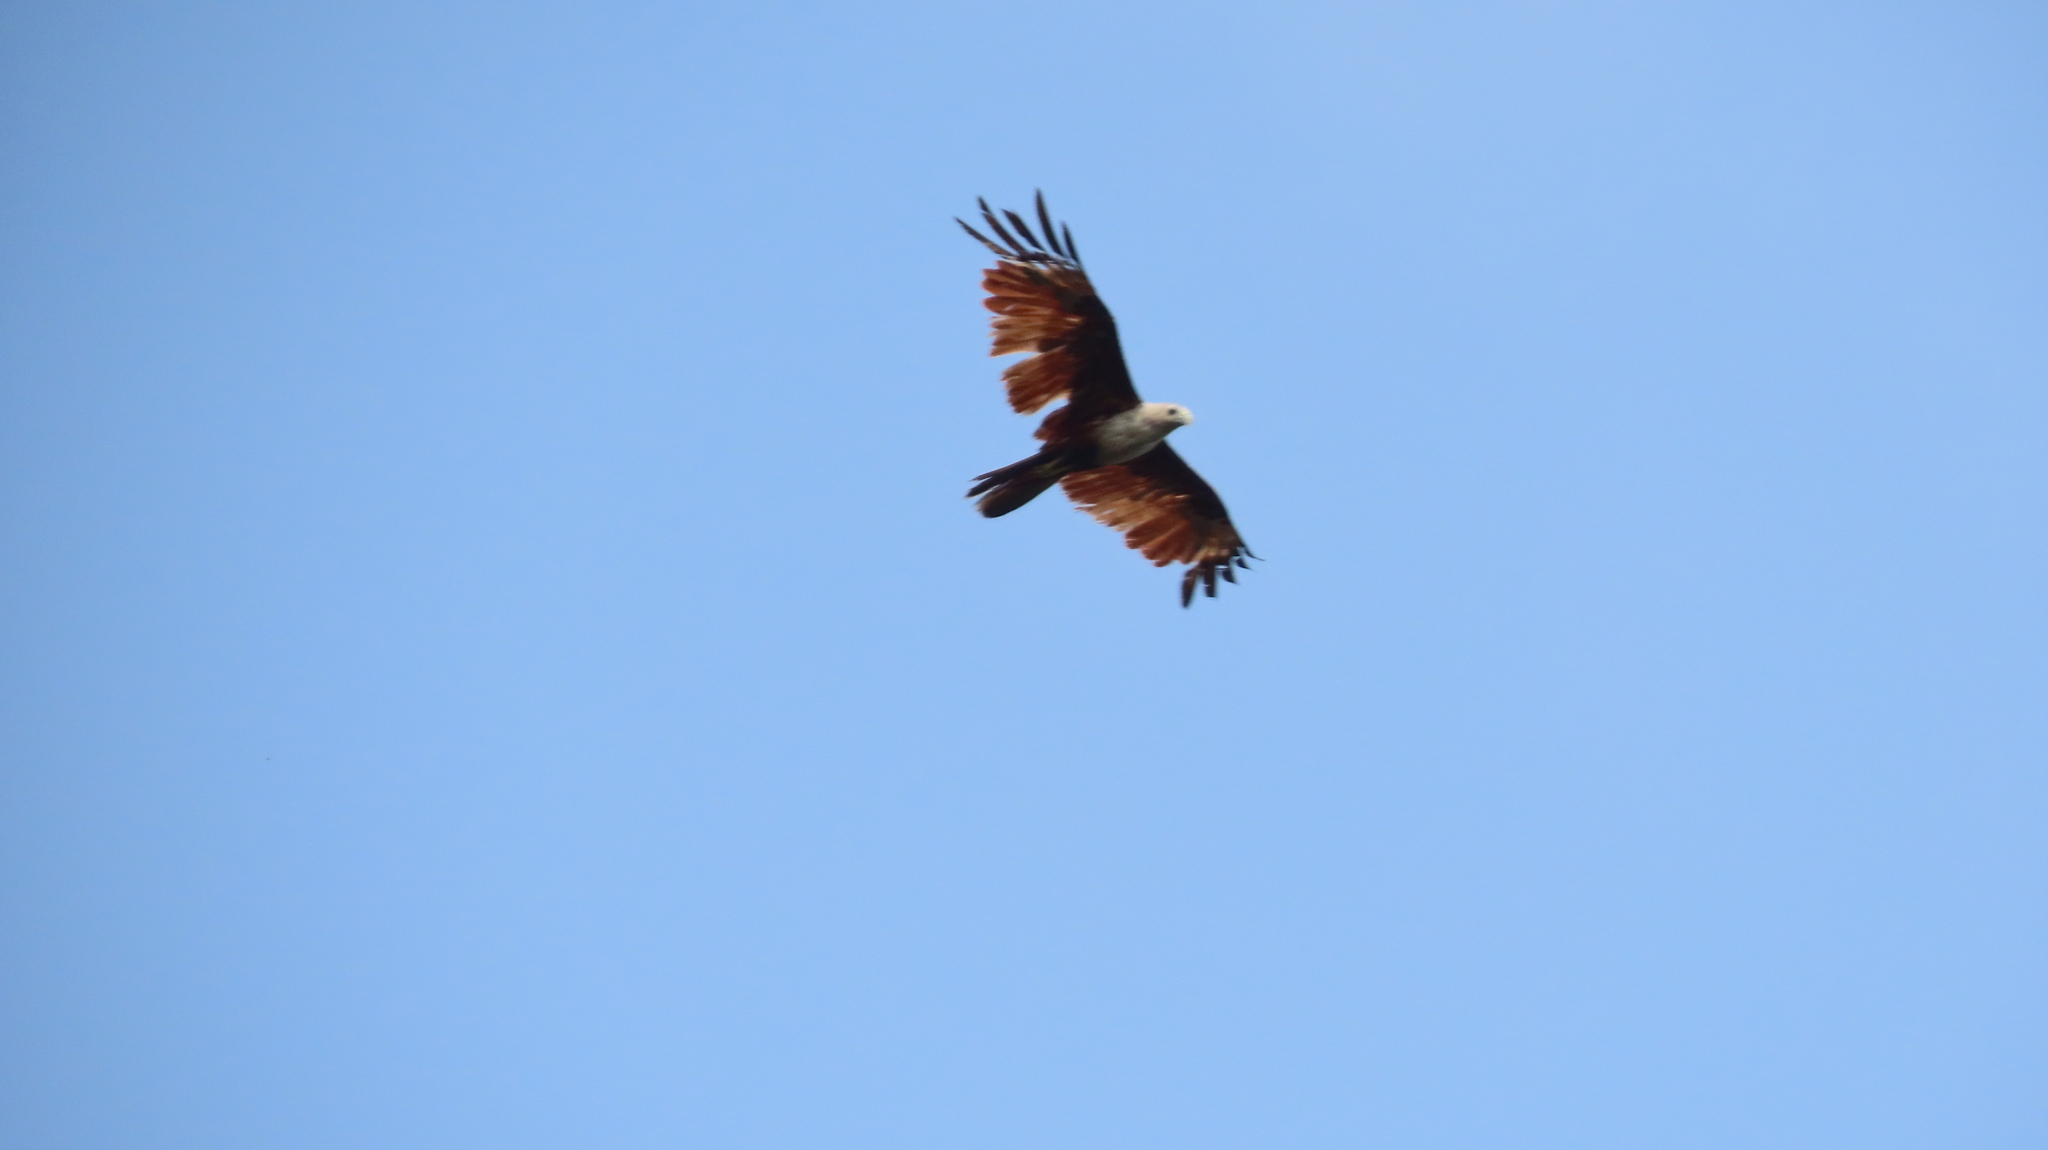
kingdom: Animalia
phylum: Chordata
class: Aves
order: Accipitriformes
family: Accipitridae
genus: Haliastur
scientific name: Haliastur indus
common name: Brahminy kite
